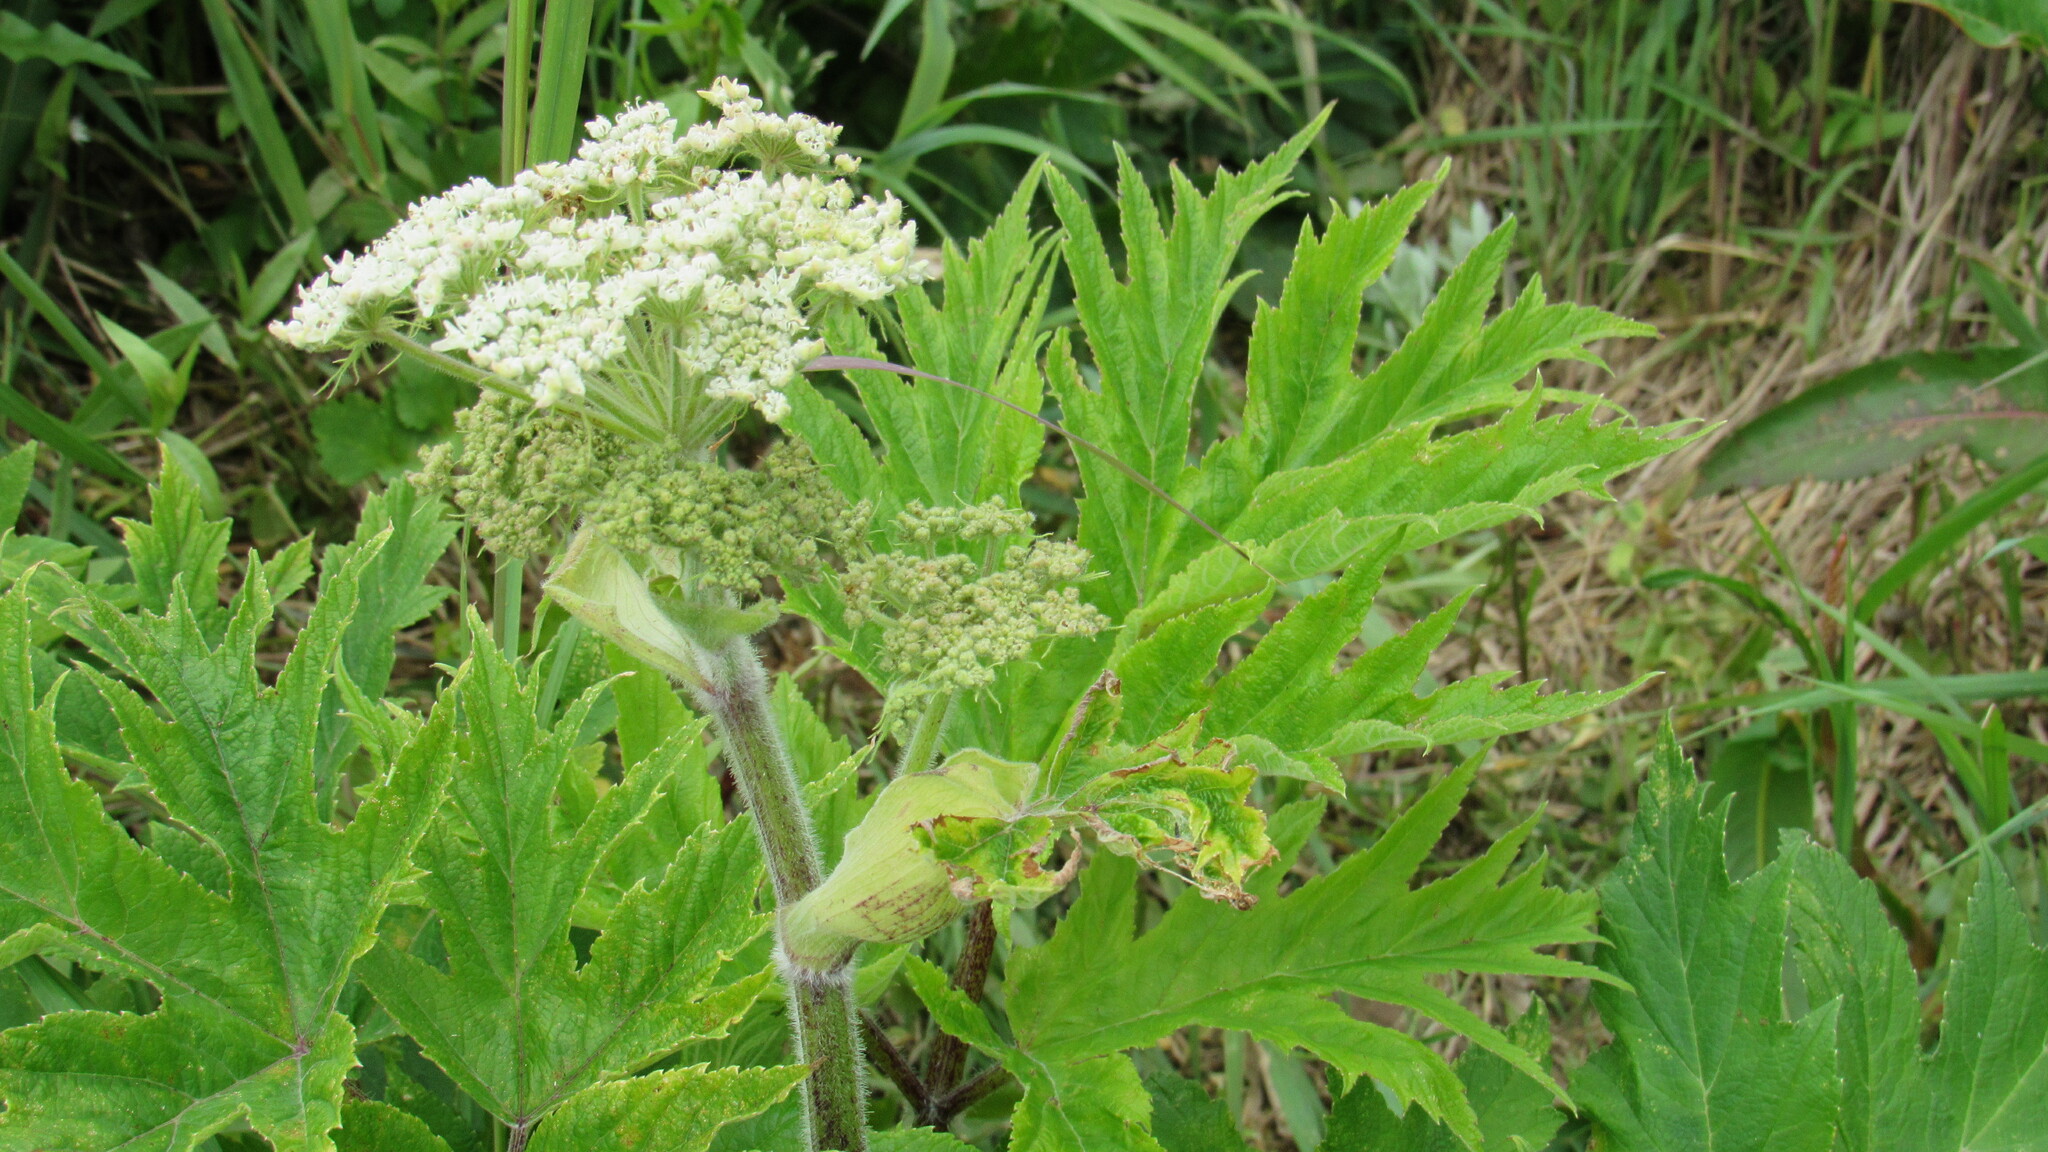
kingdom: Plantae
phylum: Tracheophyta
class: Magnoliopsida
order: Apiales
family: Apiaceae
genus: Heracleum
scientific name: Heracleum maximum
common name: American cow parsnip
